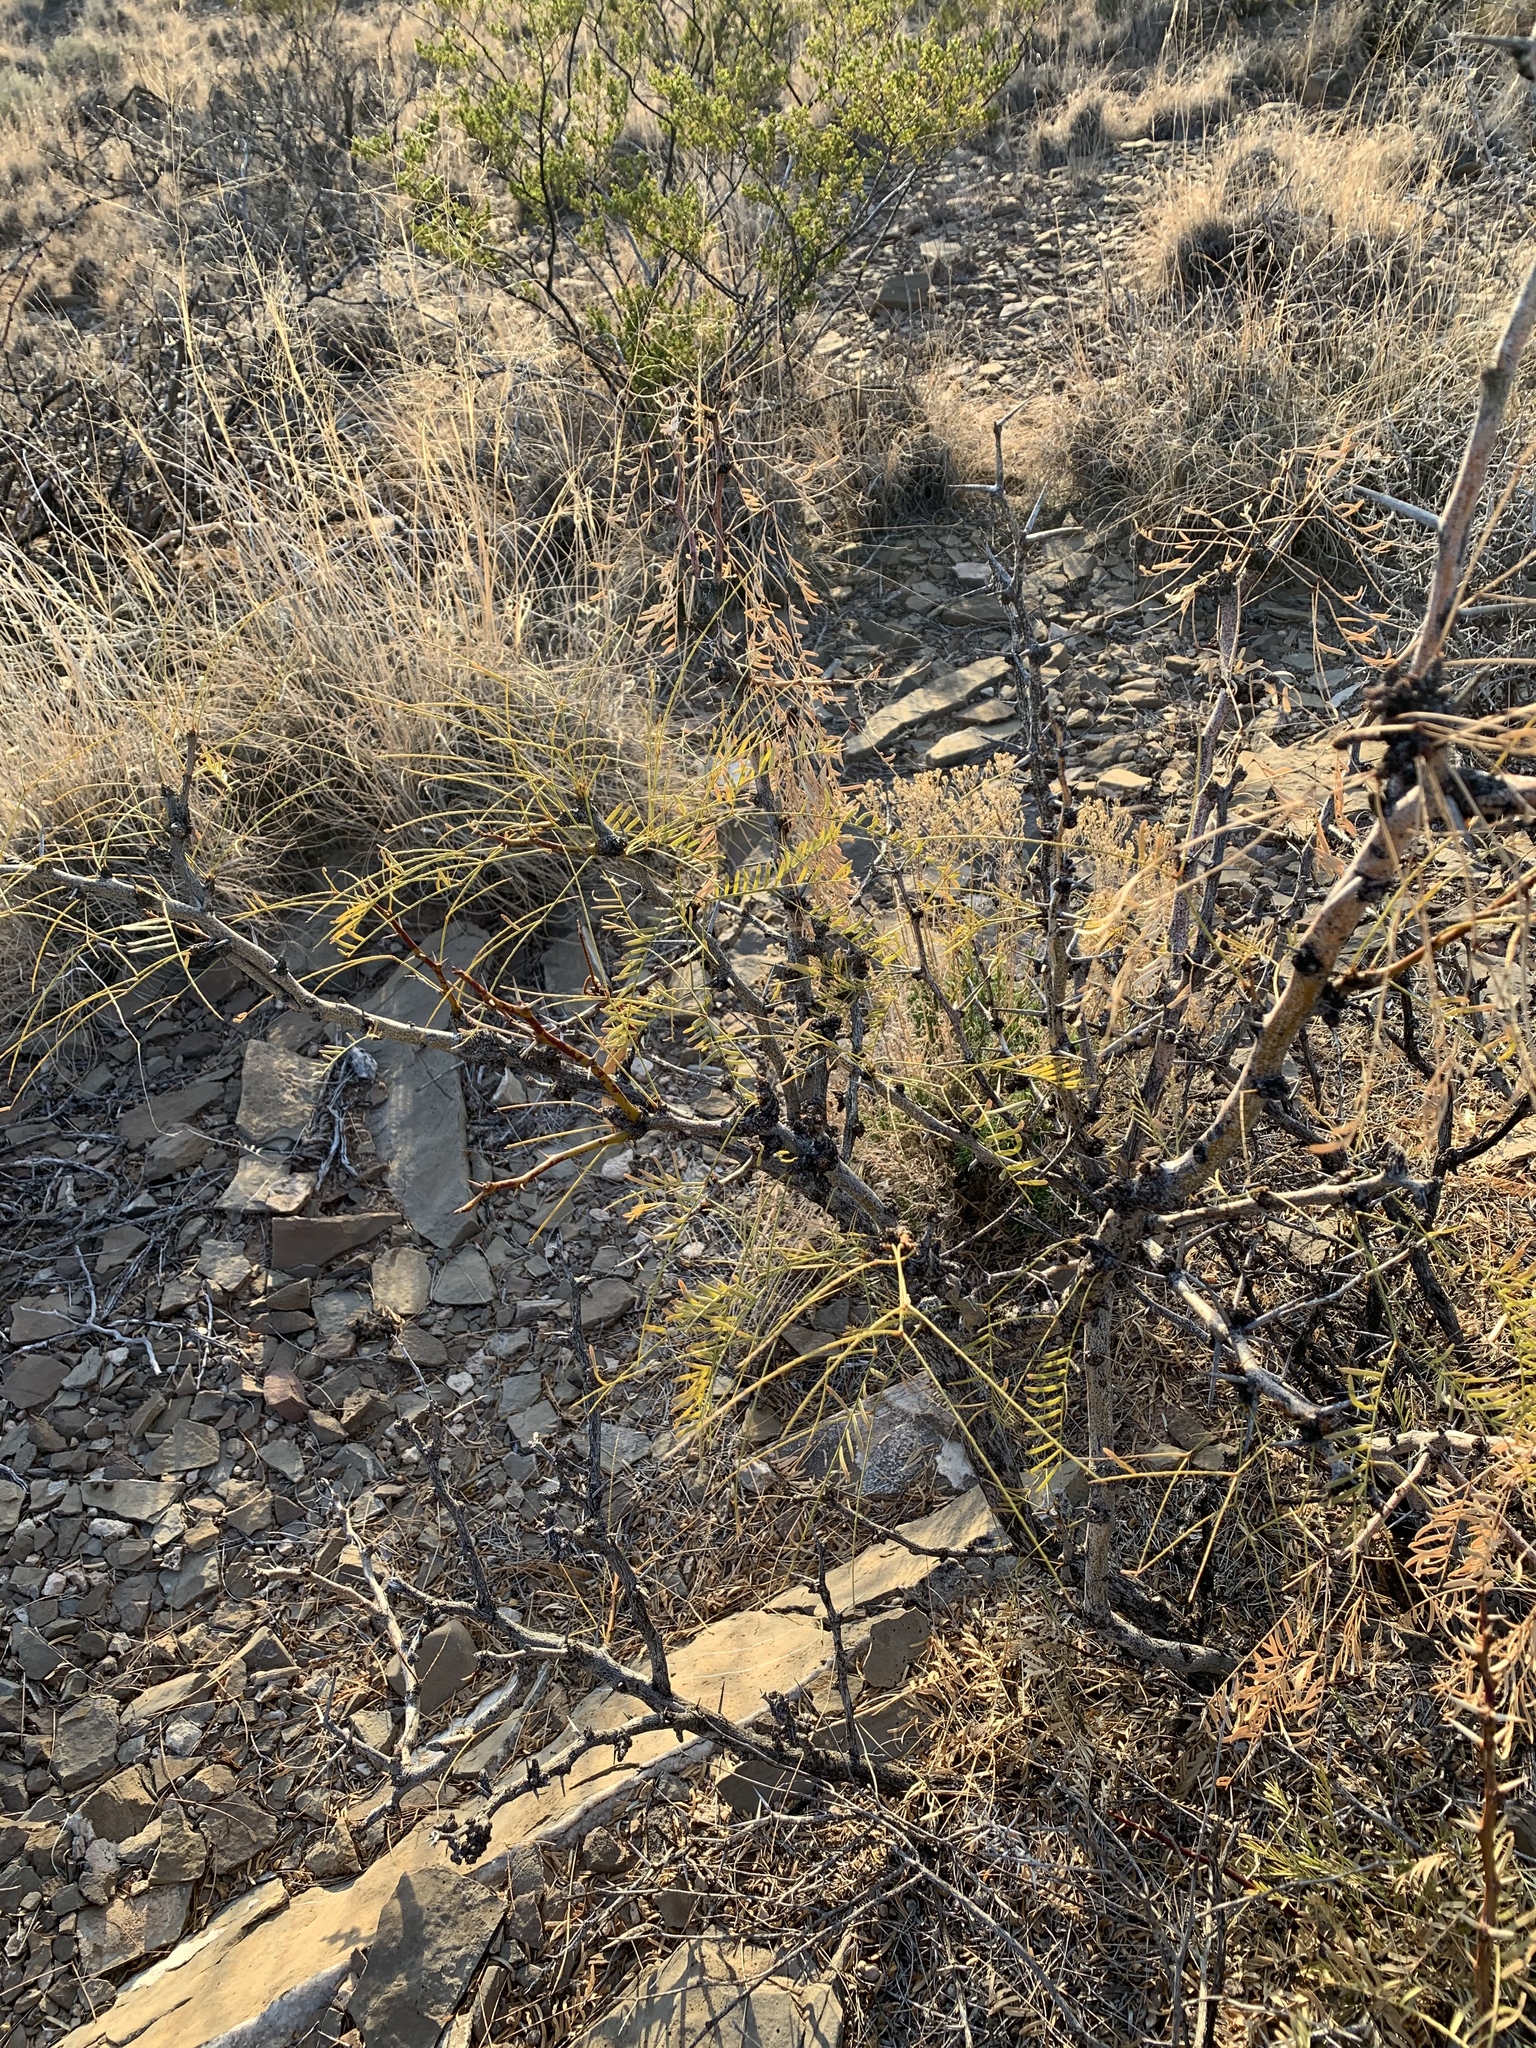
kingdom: Plantae
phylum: Tracheophyta
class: Magnoliopsida
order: Fabales
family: Fabaceae
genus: Prosopis
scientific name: Prosopis glandulosa
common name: Honey mesquite
